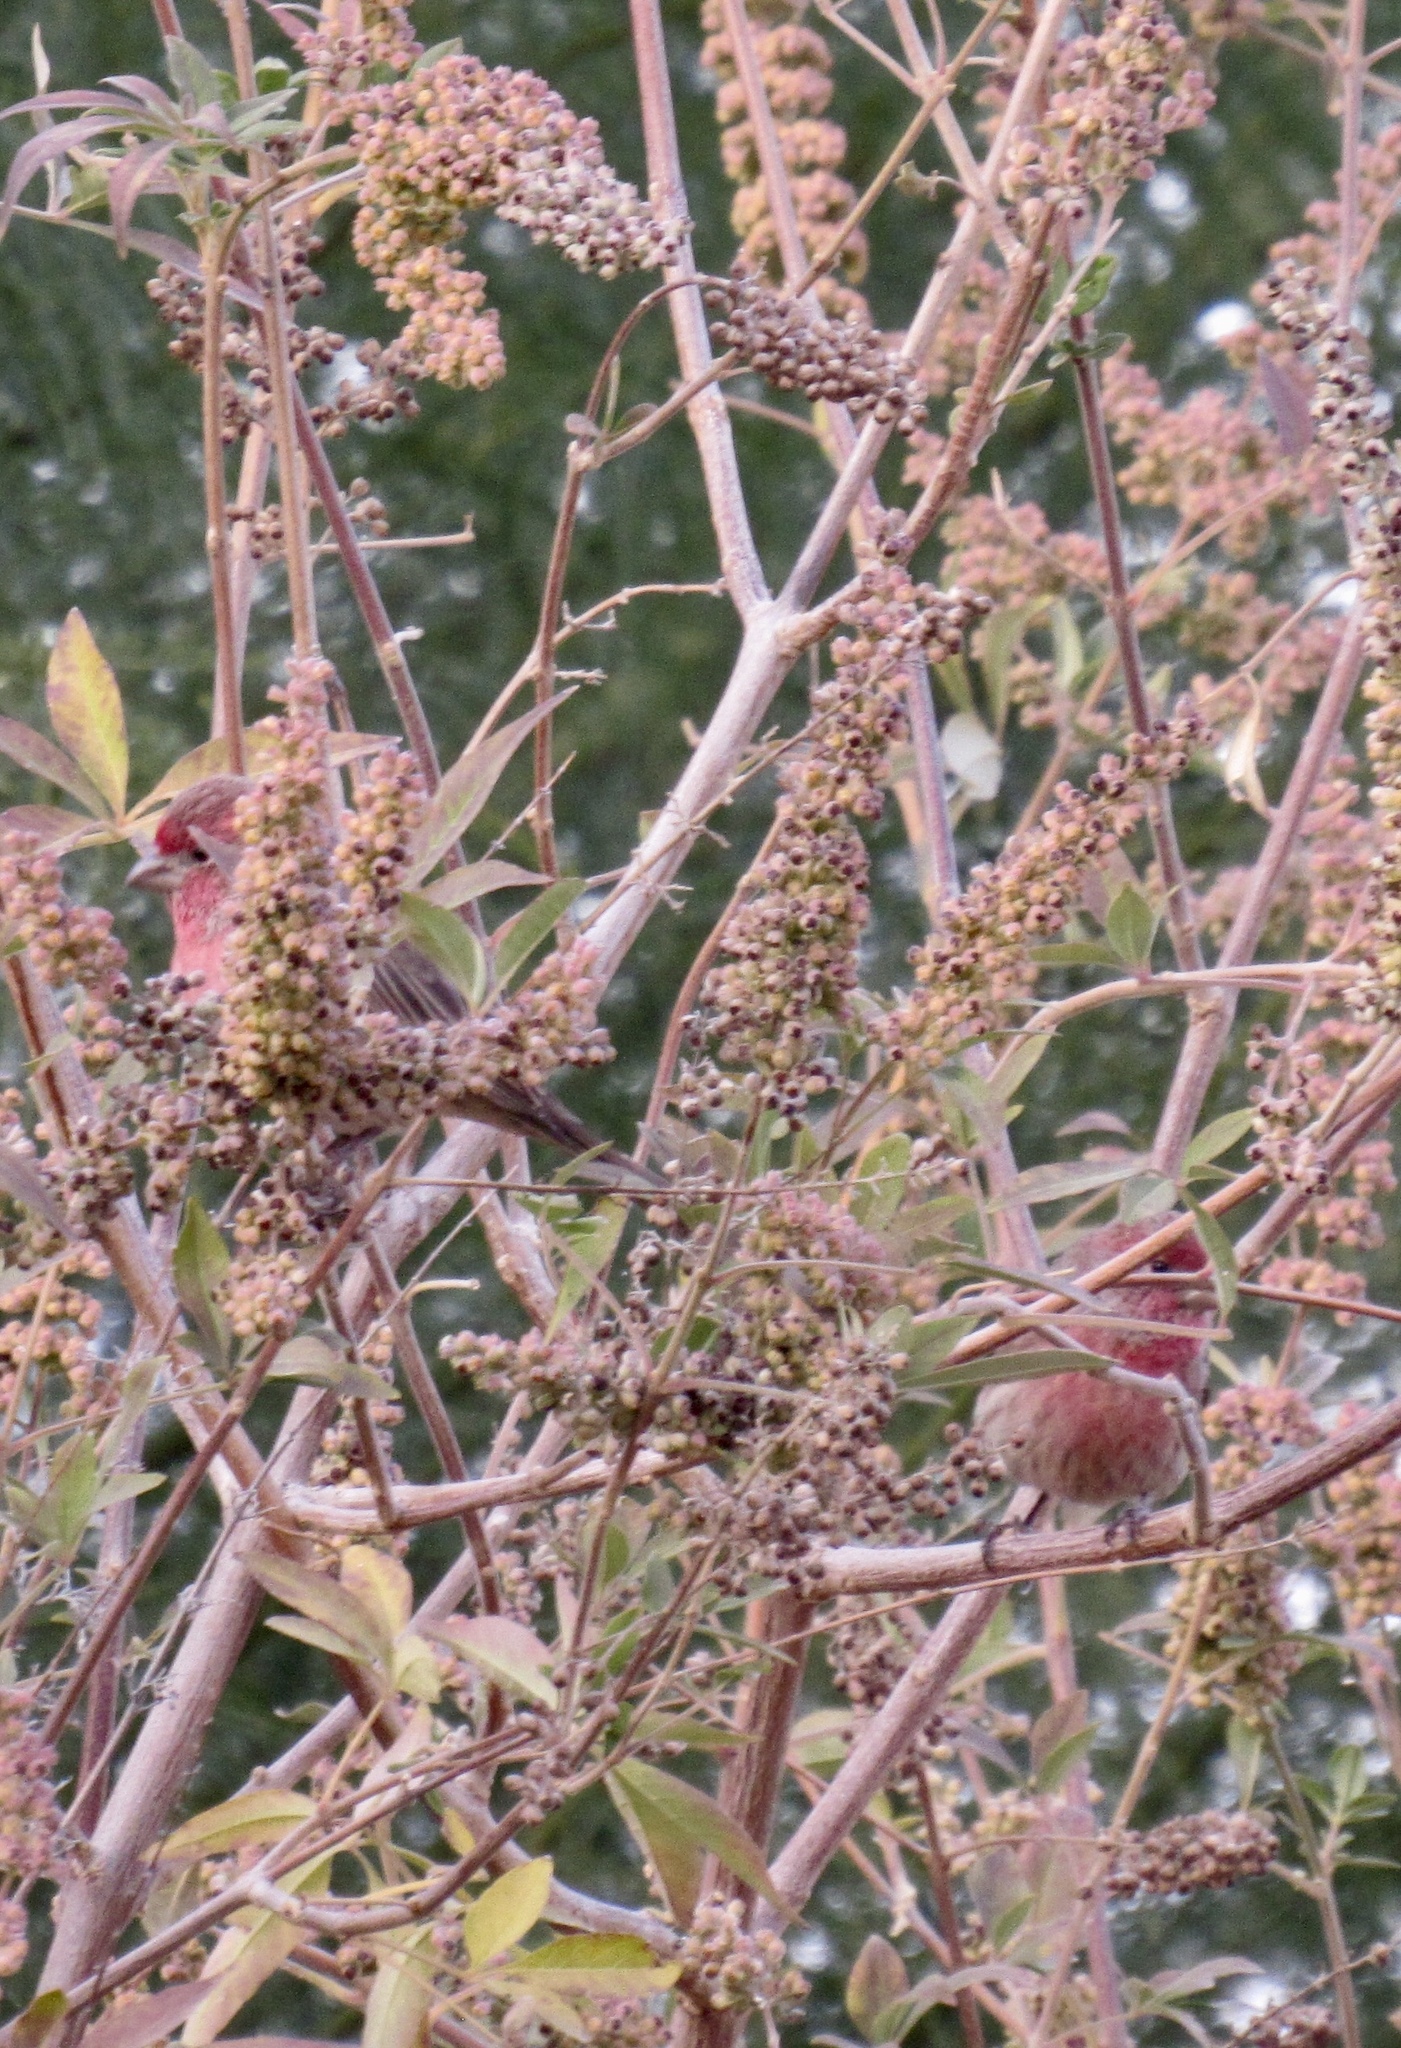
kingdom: Animalia
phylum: Chordata
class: Aves
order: Passeriformes
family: Fringillidae
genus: Haemorhous
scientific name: Haemorhous mexicanus
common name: House finch
